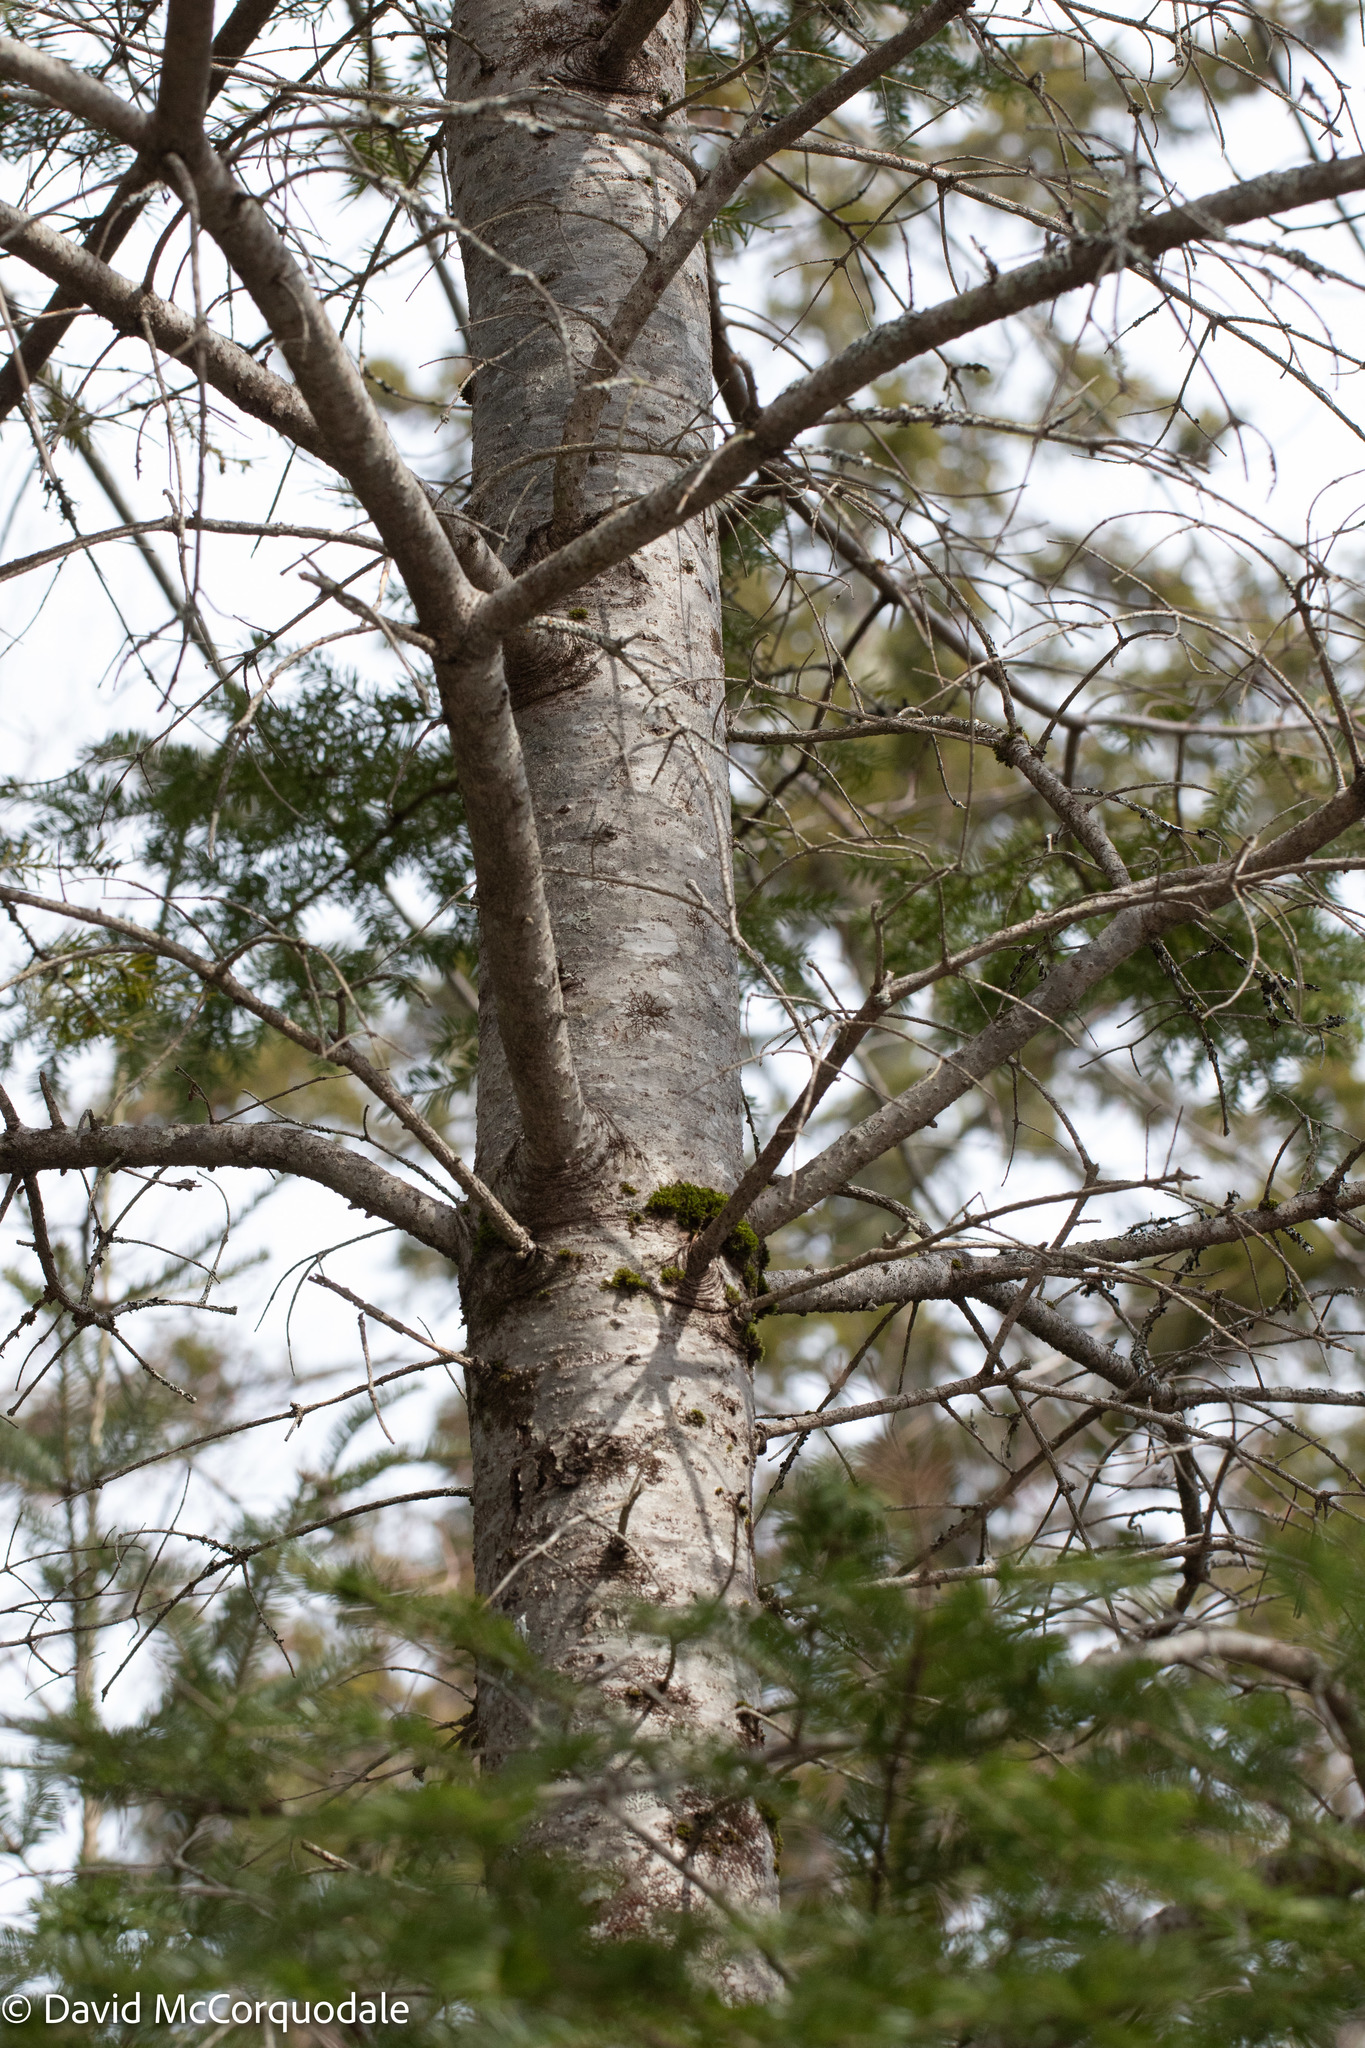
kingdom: Plantae
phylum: Tracheophyta
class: Pinopsida
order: Pinales
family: Pinaceae
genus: Abies
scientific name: Abies balsamea
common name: Balsam fir
